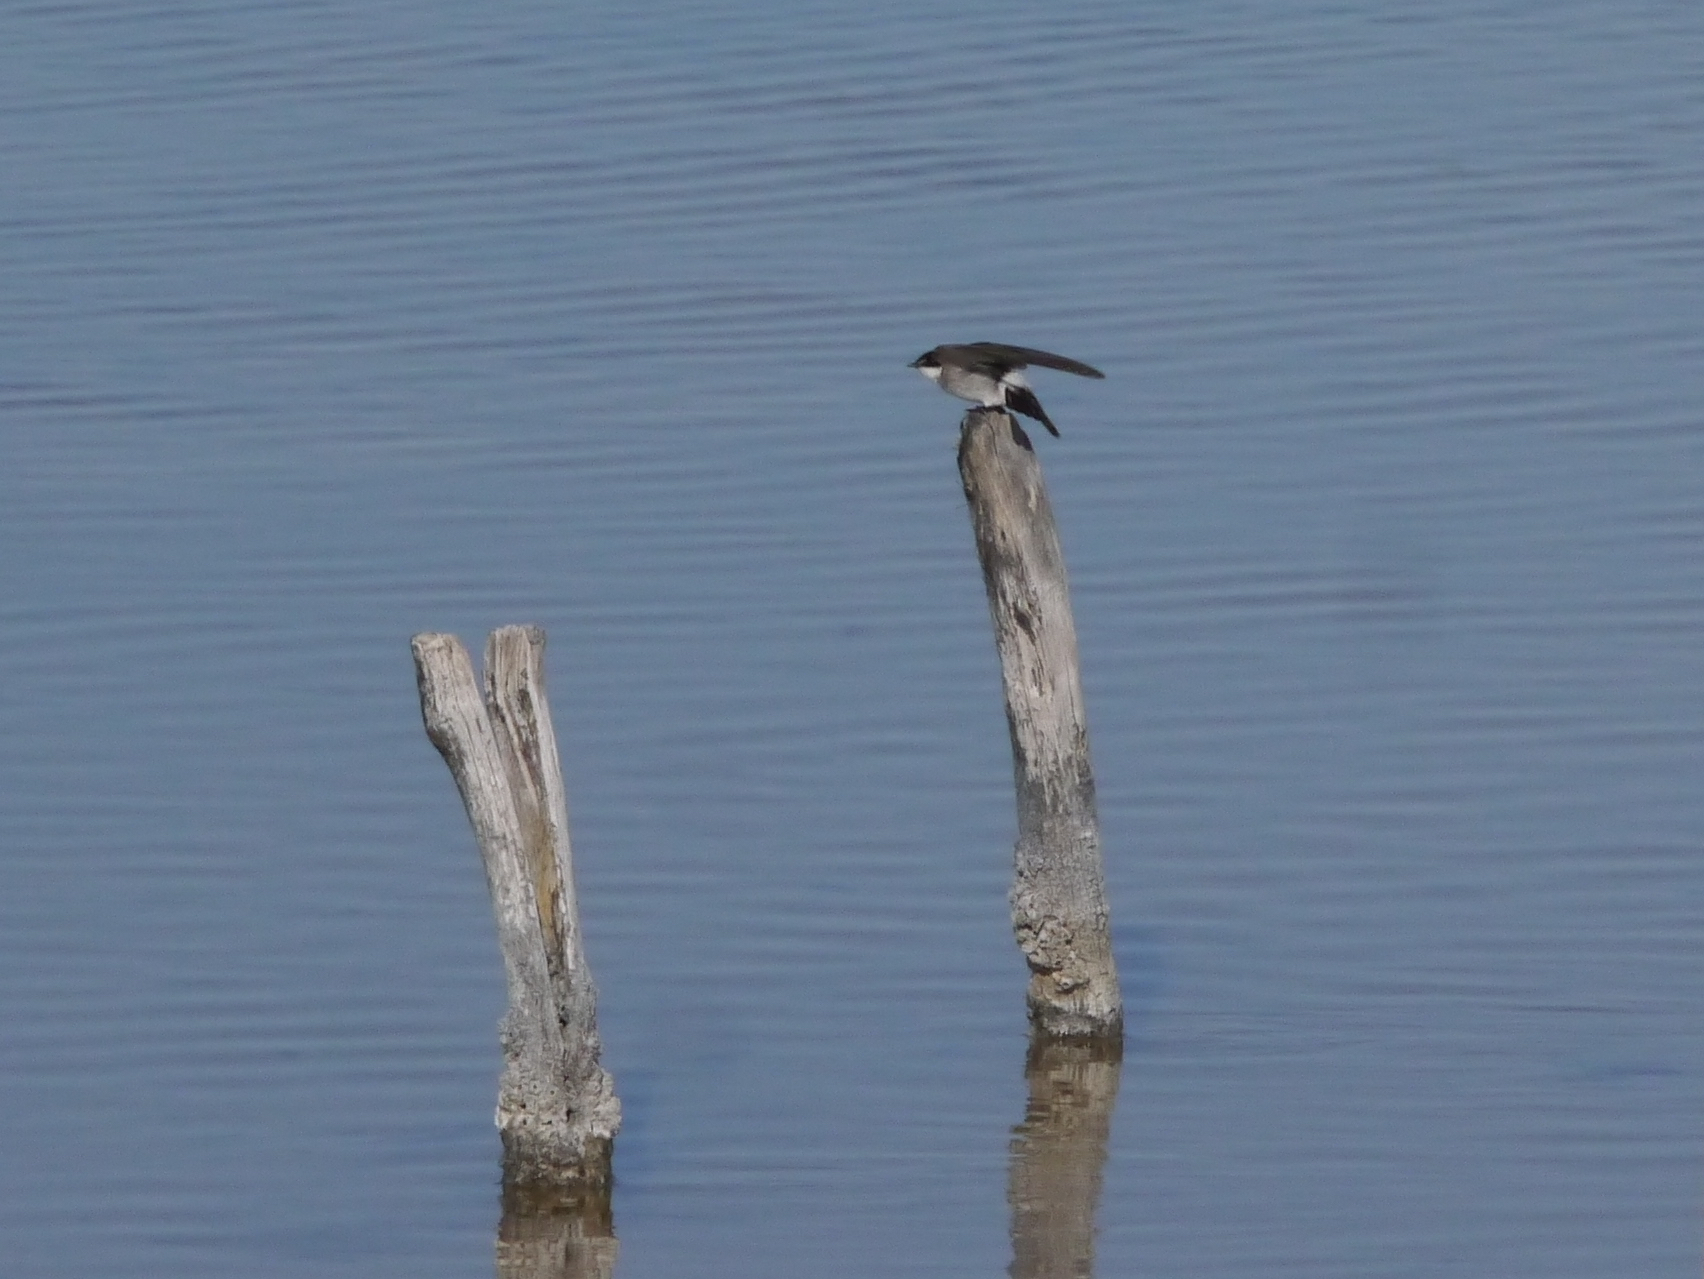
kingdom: Animalia
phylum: Chordata
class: Aves
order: Passeriformes
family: Hirundinidae
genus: Tachycineta
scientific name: Tachycineta albilinea
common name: Mangrove swallow
